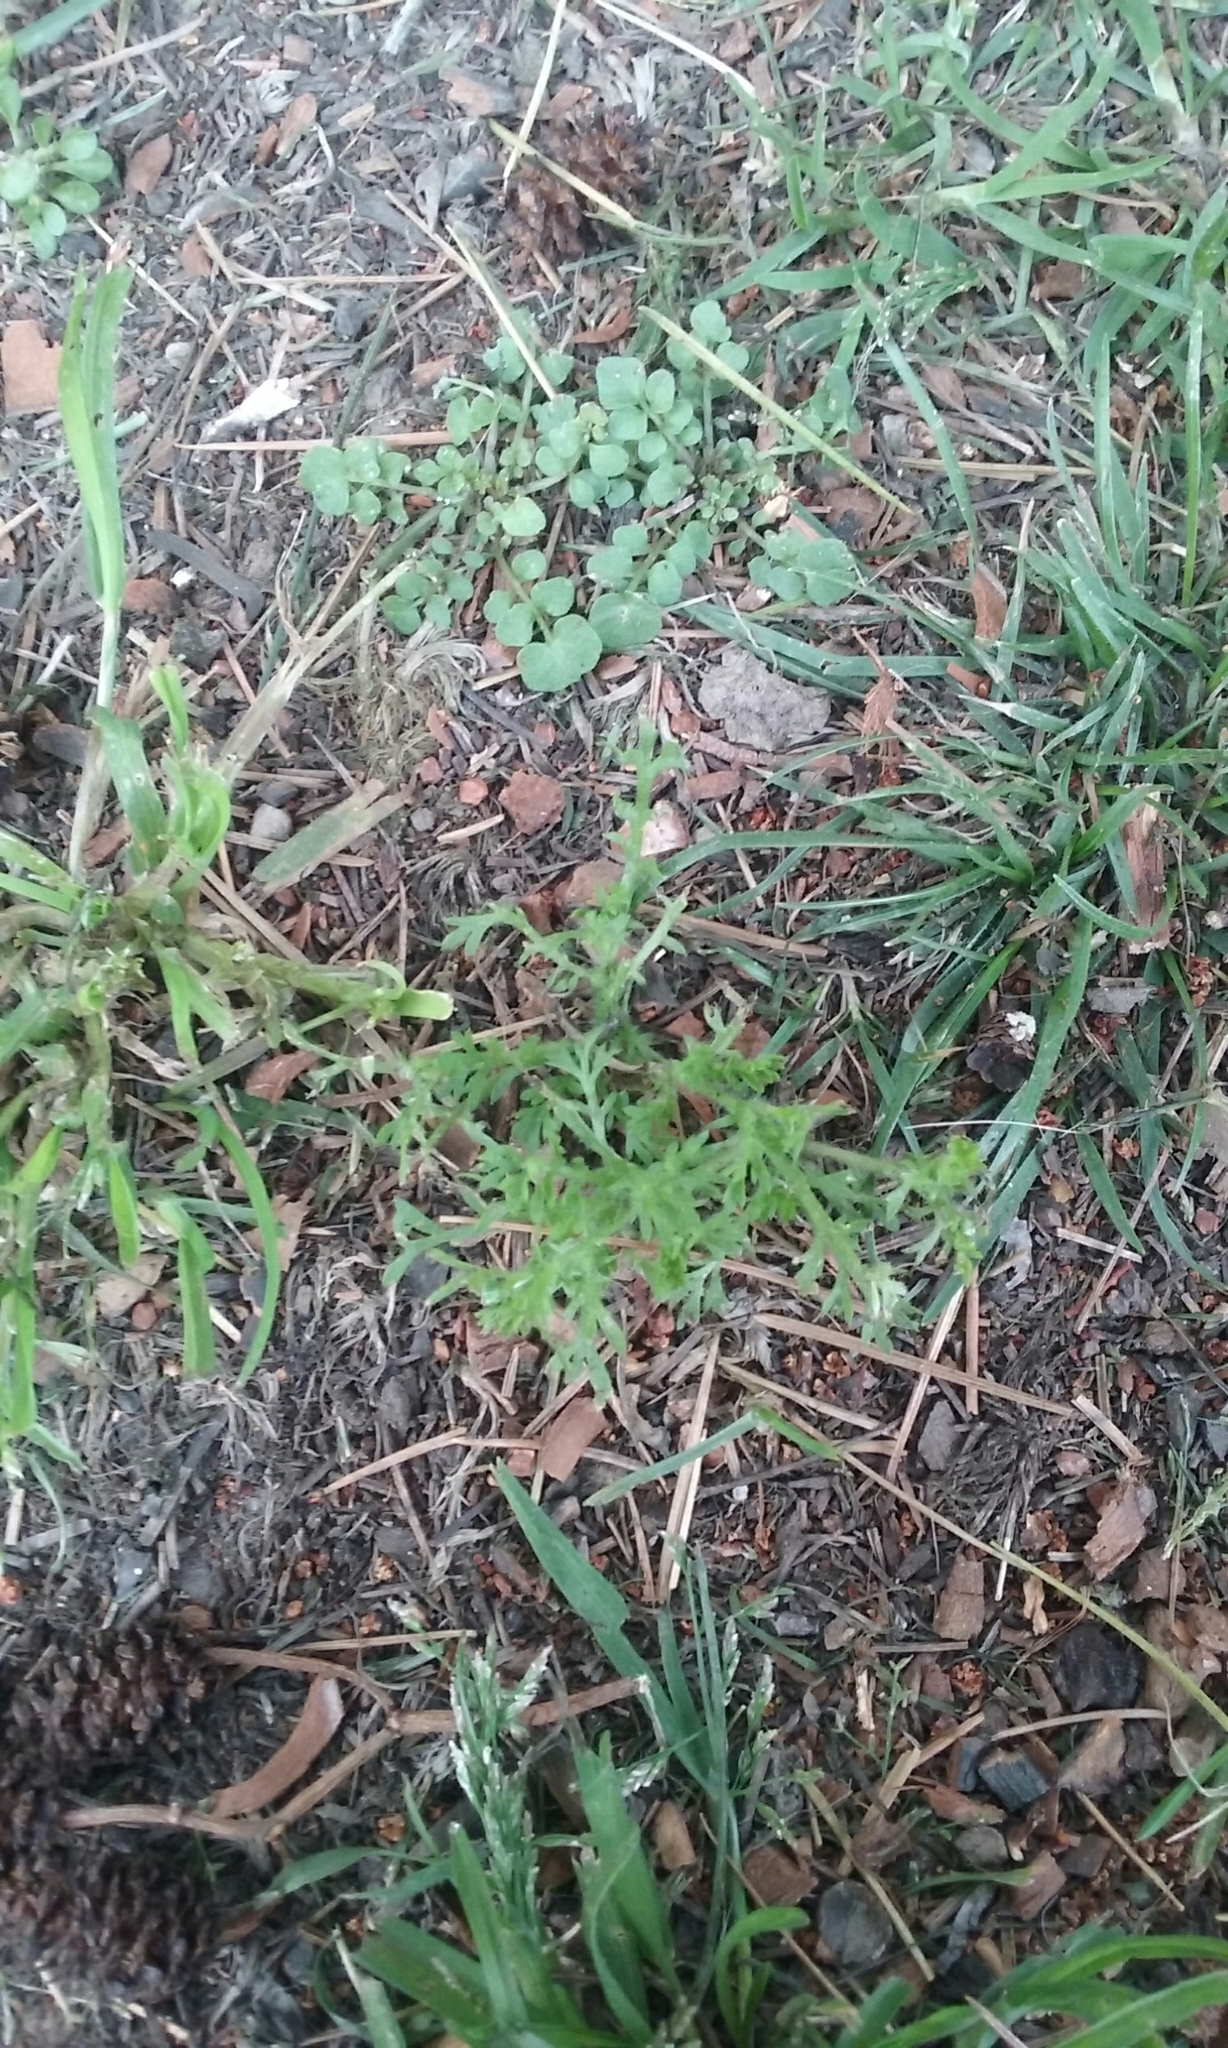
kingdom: Plantae
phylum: Tracheophyta
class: Magnoliopsida
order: Asterales
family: Asteraceae
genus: Cotula
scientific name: Cotula australis
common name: Australian waterbuttons
